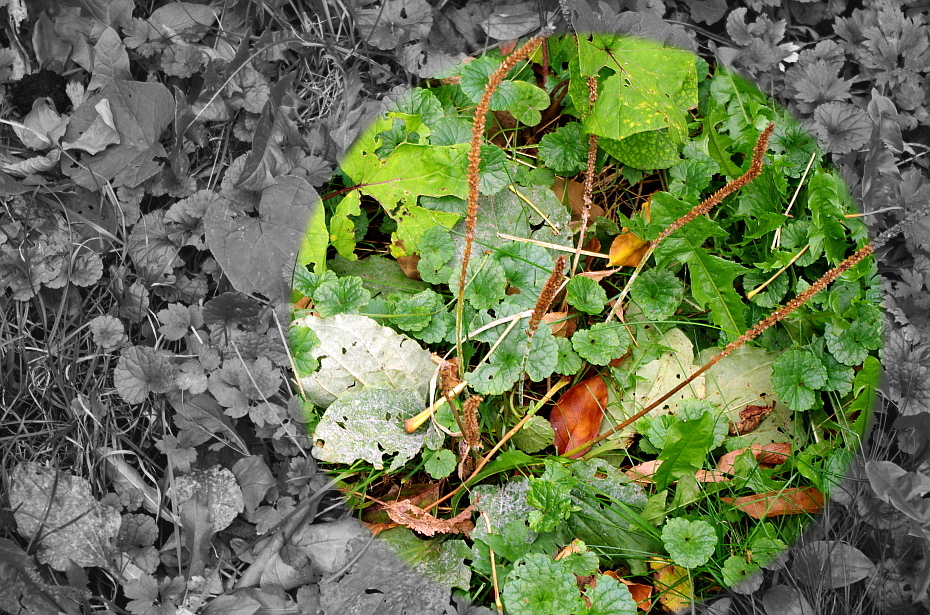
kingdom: Plantae
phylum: Tracheophyta
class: Magnoliopsida
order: Lamiales
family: Plantaginaceae
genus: Plantago
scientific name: Plantago major
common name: Common plantain
